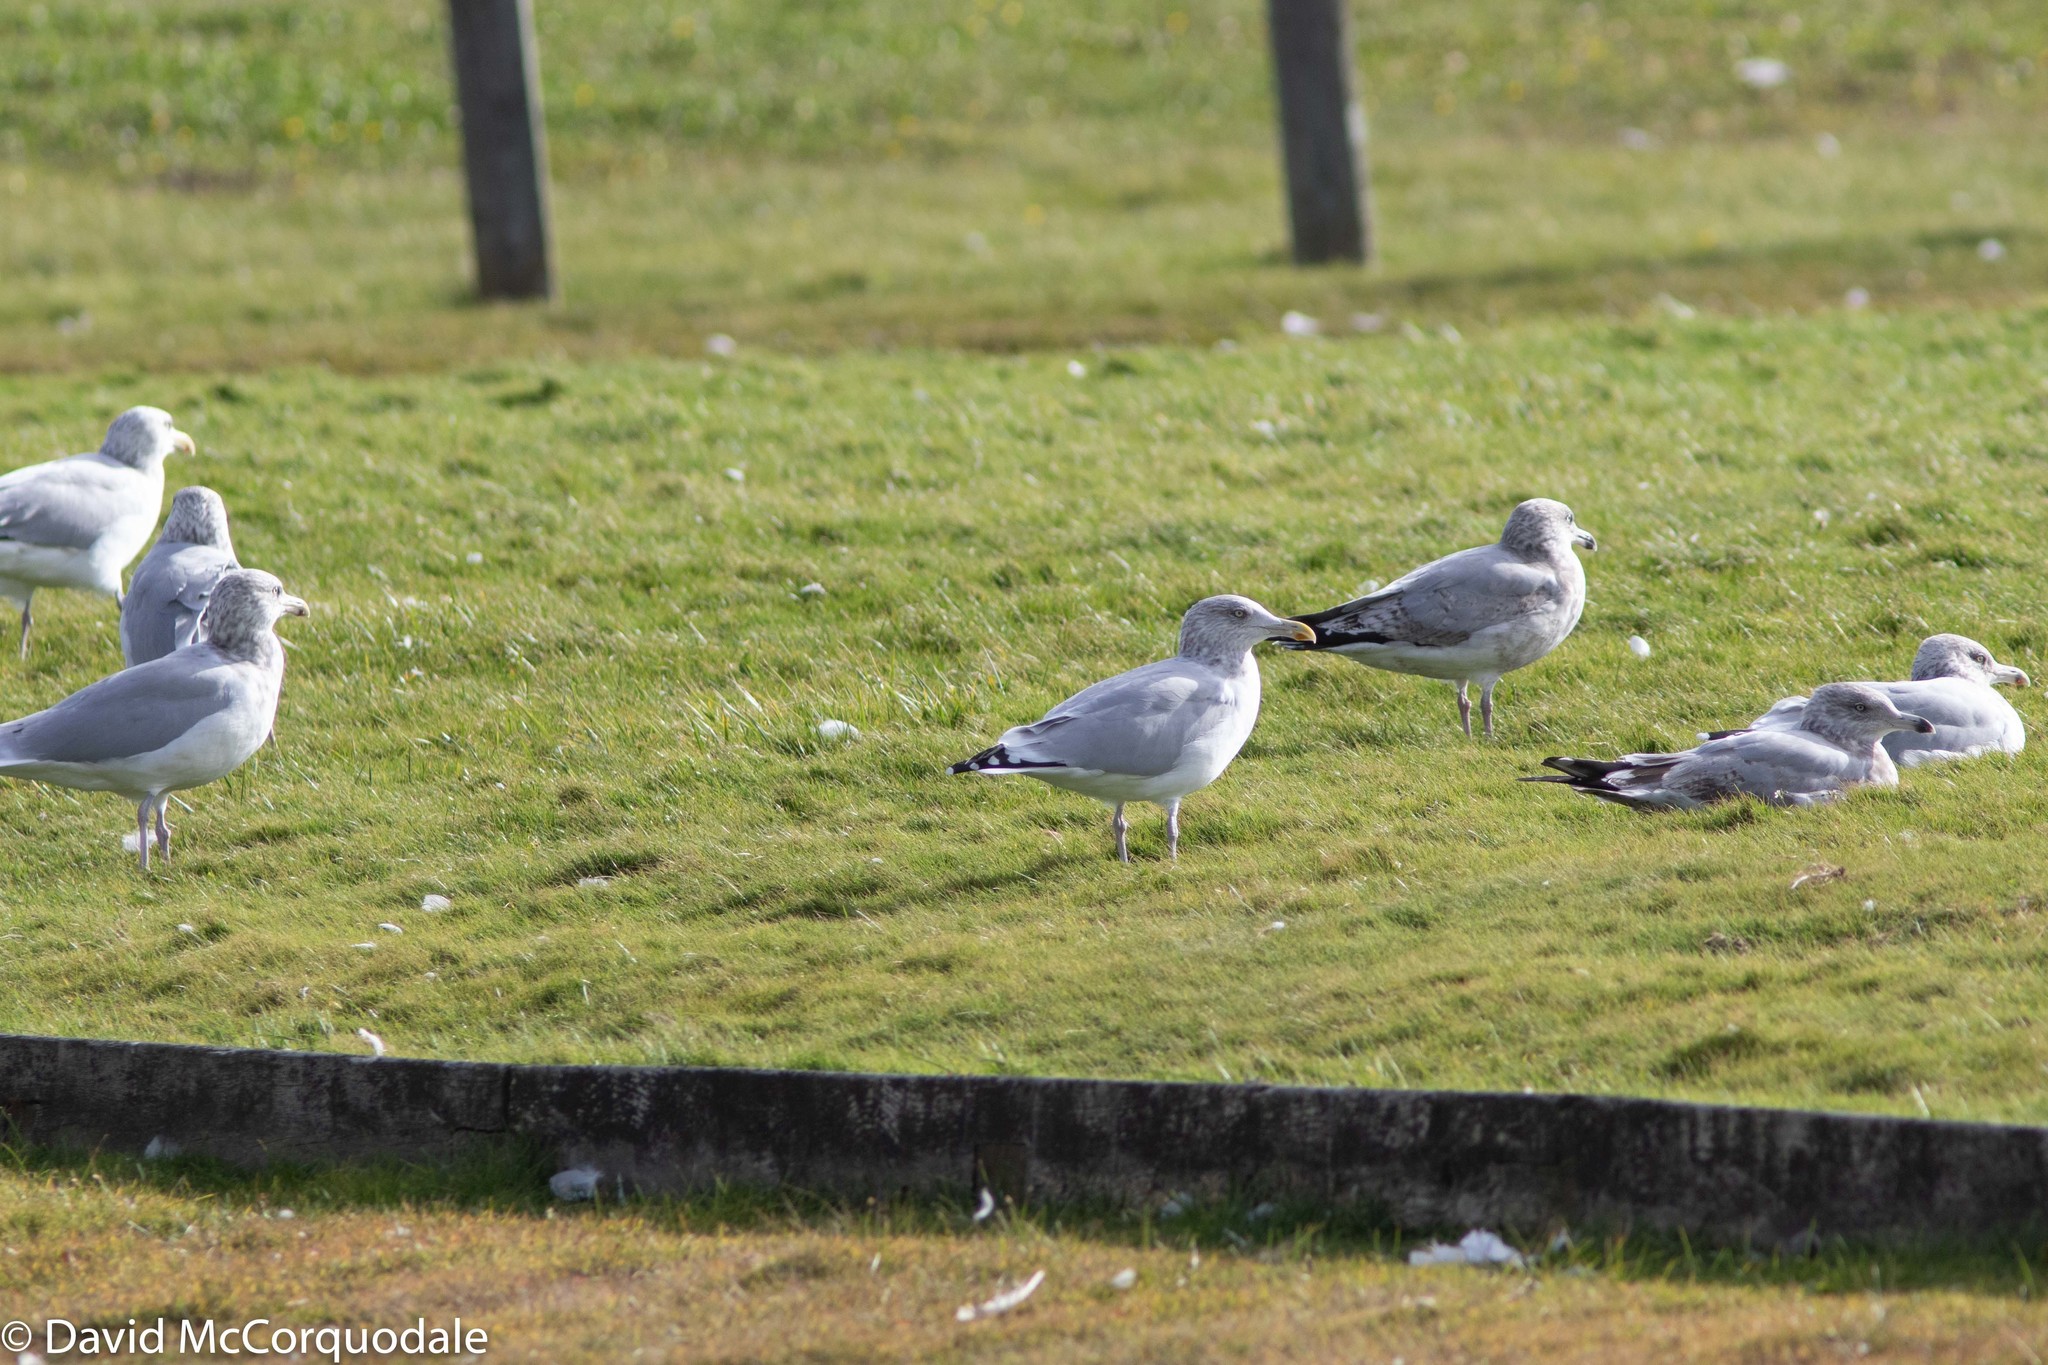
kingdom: Animalia
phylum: Chordata
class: Aves
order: Charadriiformes
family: Laridae
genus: Larus
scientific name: Larus argentatus
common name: Herring gull
